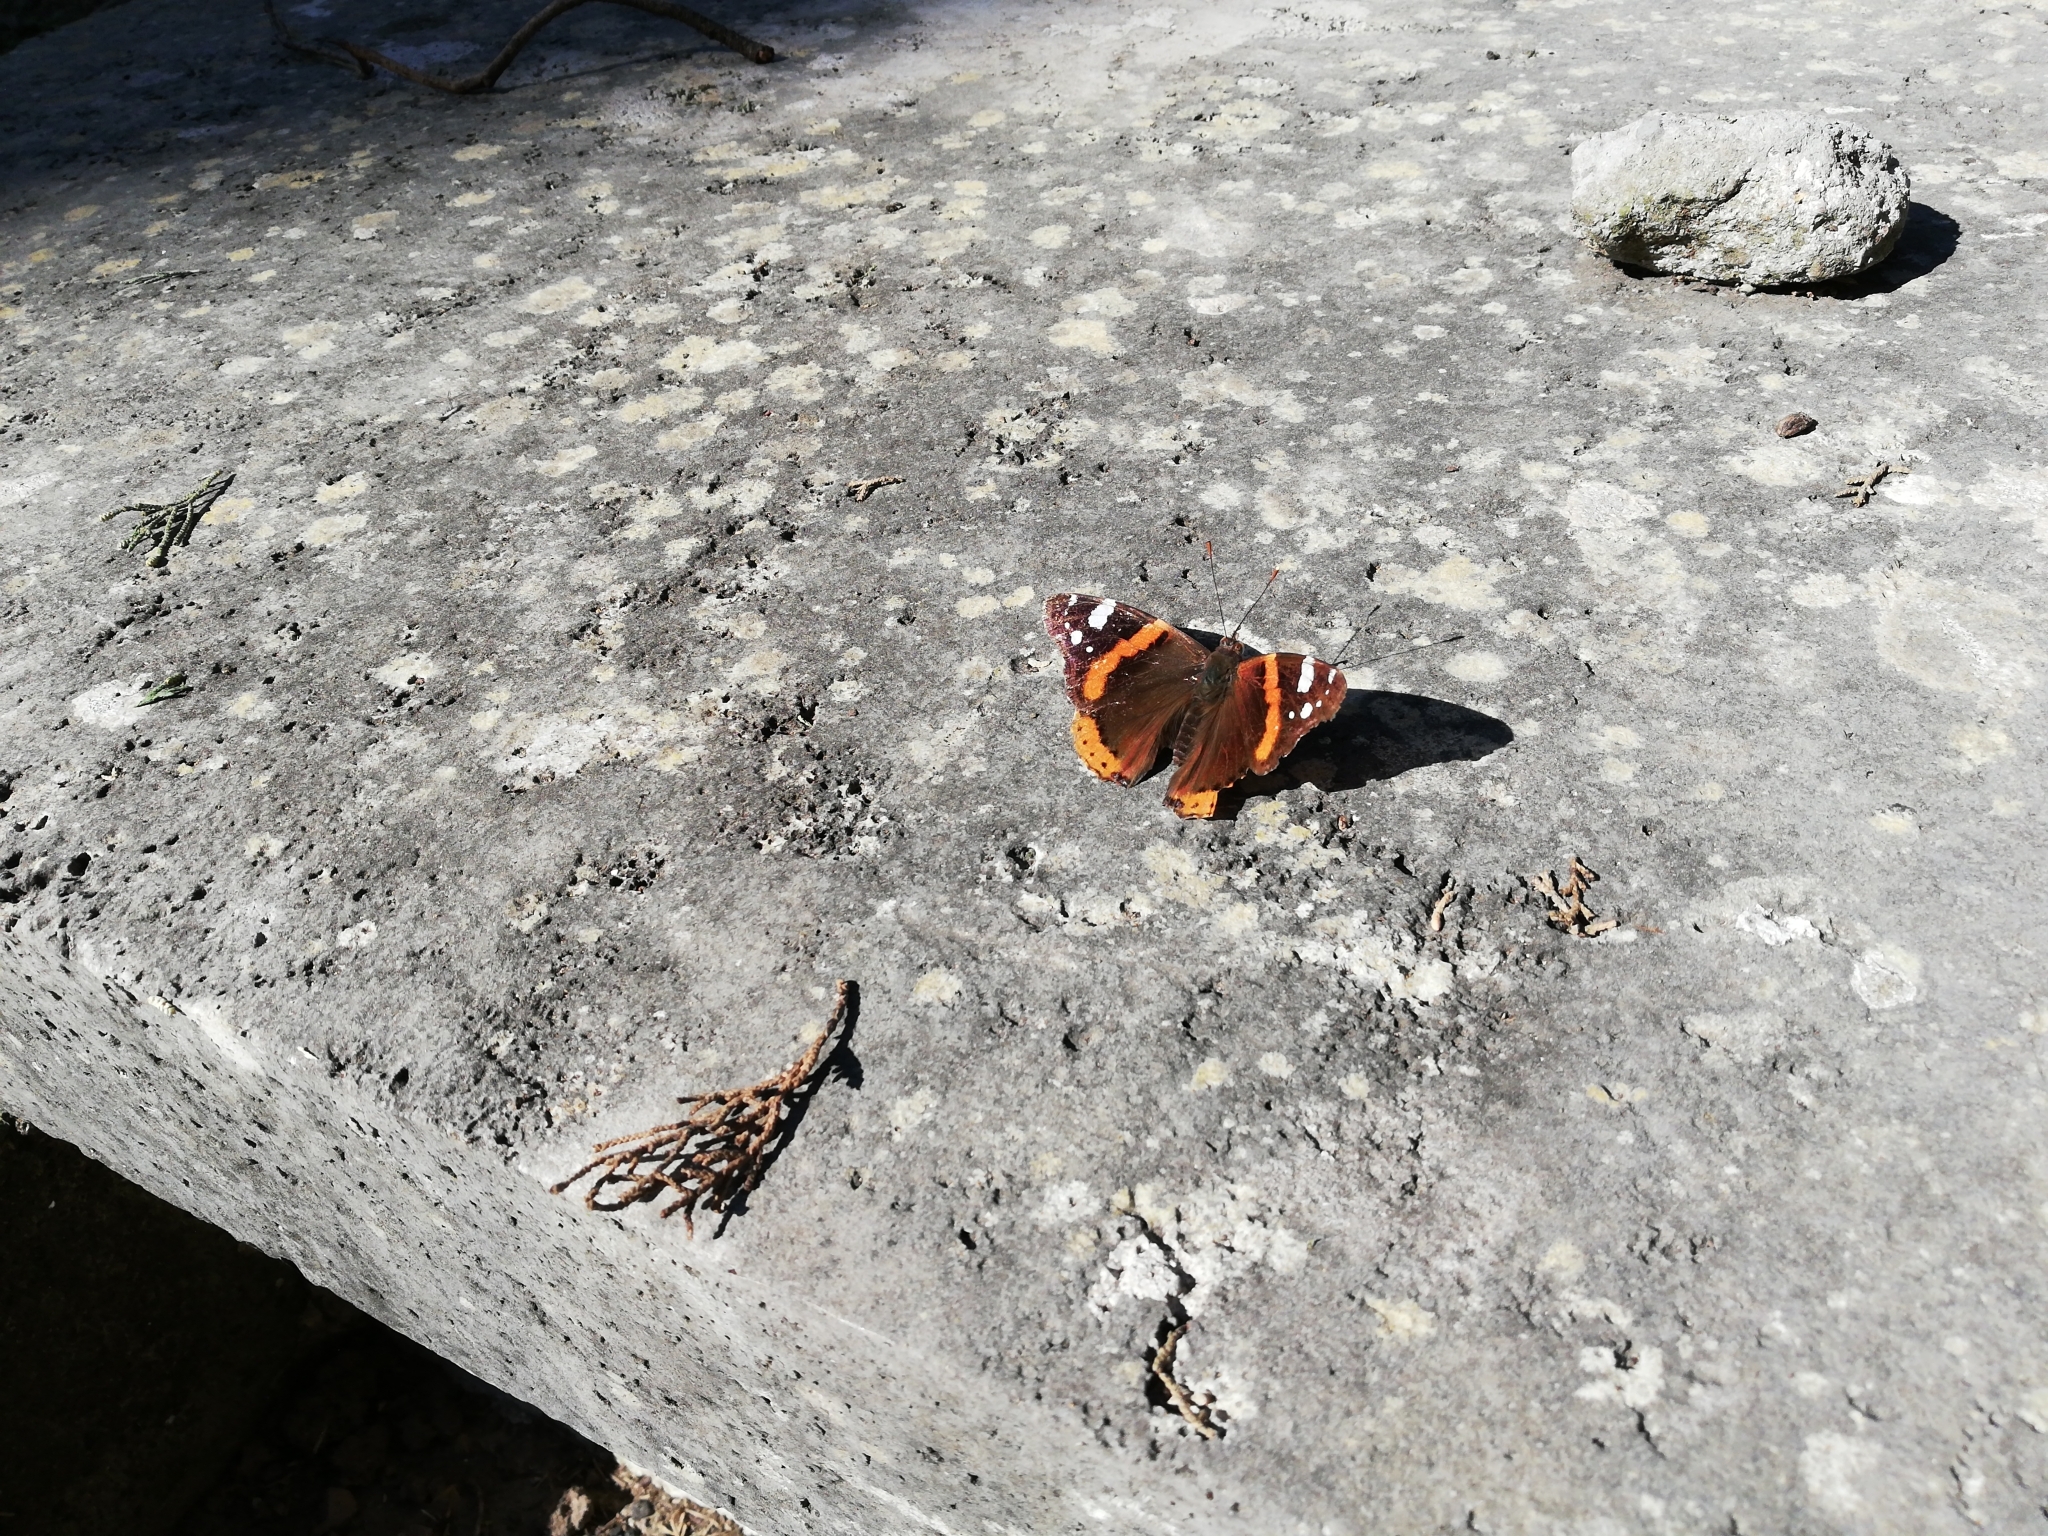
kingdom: Animalia
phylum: Arthropoda
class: Insecta
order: Lepidoptera
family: Nymphalidae
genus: Vanessa
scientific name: Vanessa atalanta
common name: Red admiral
